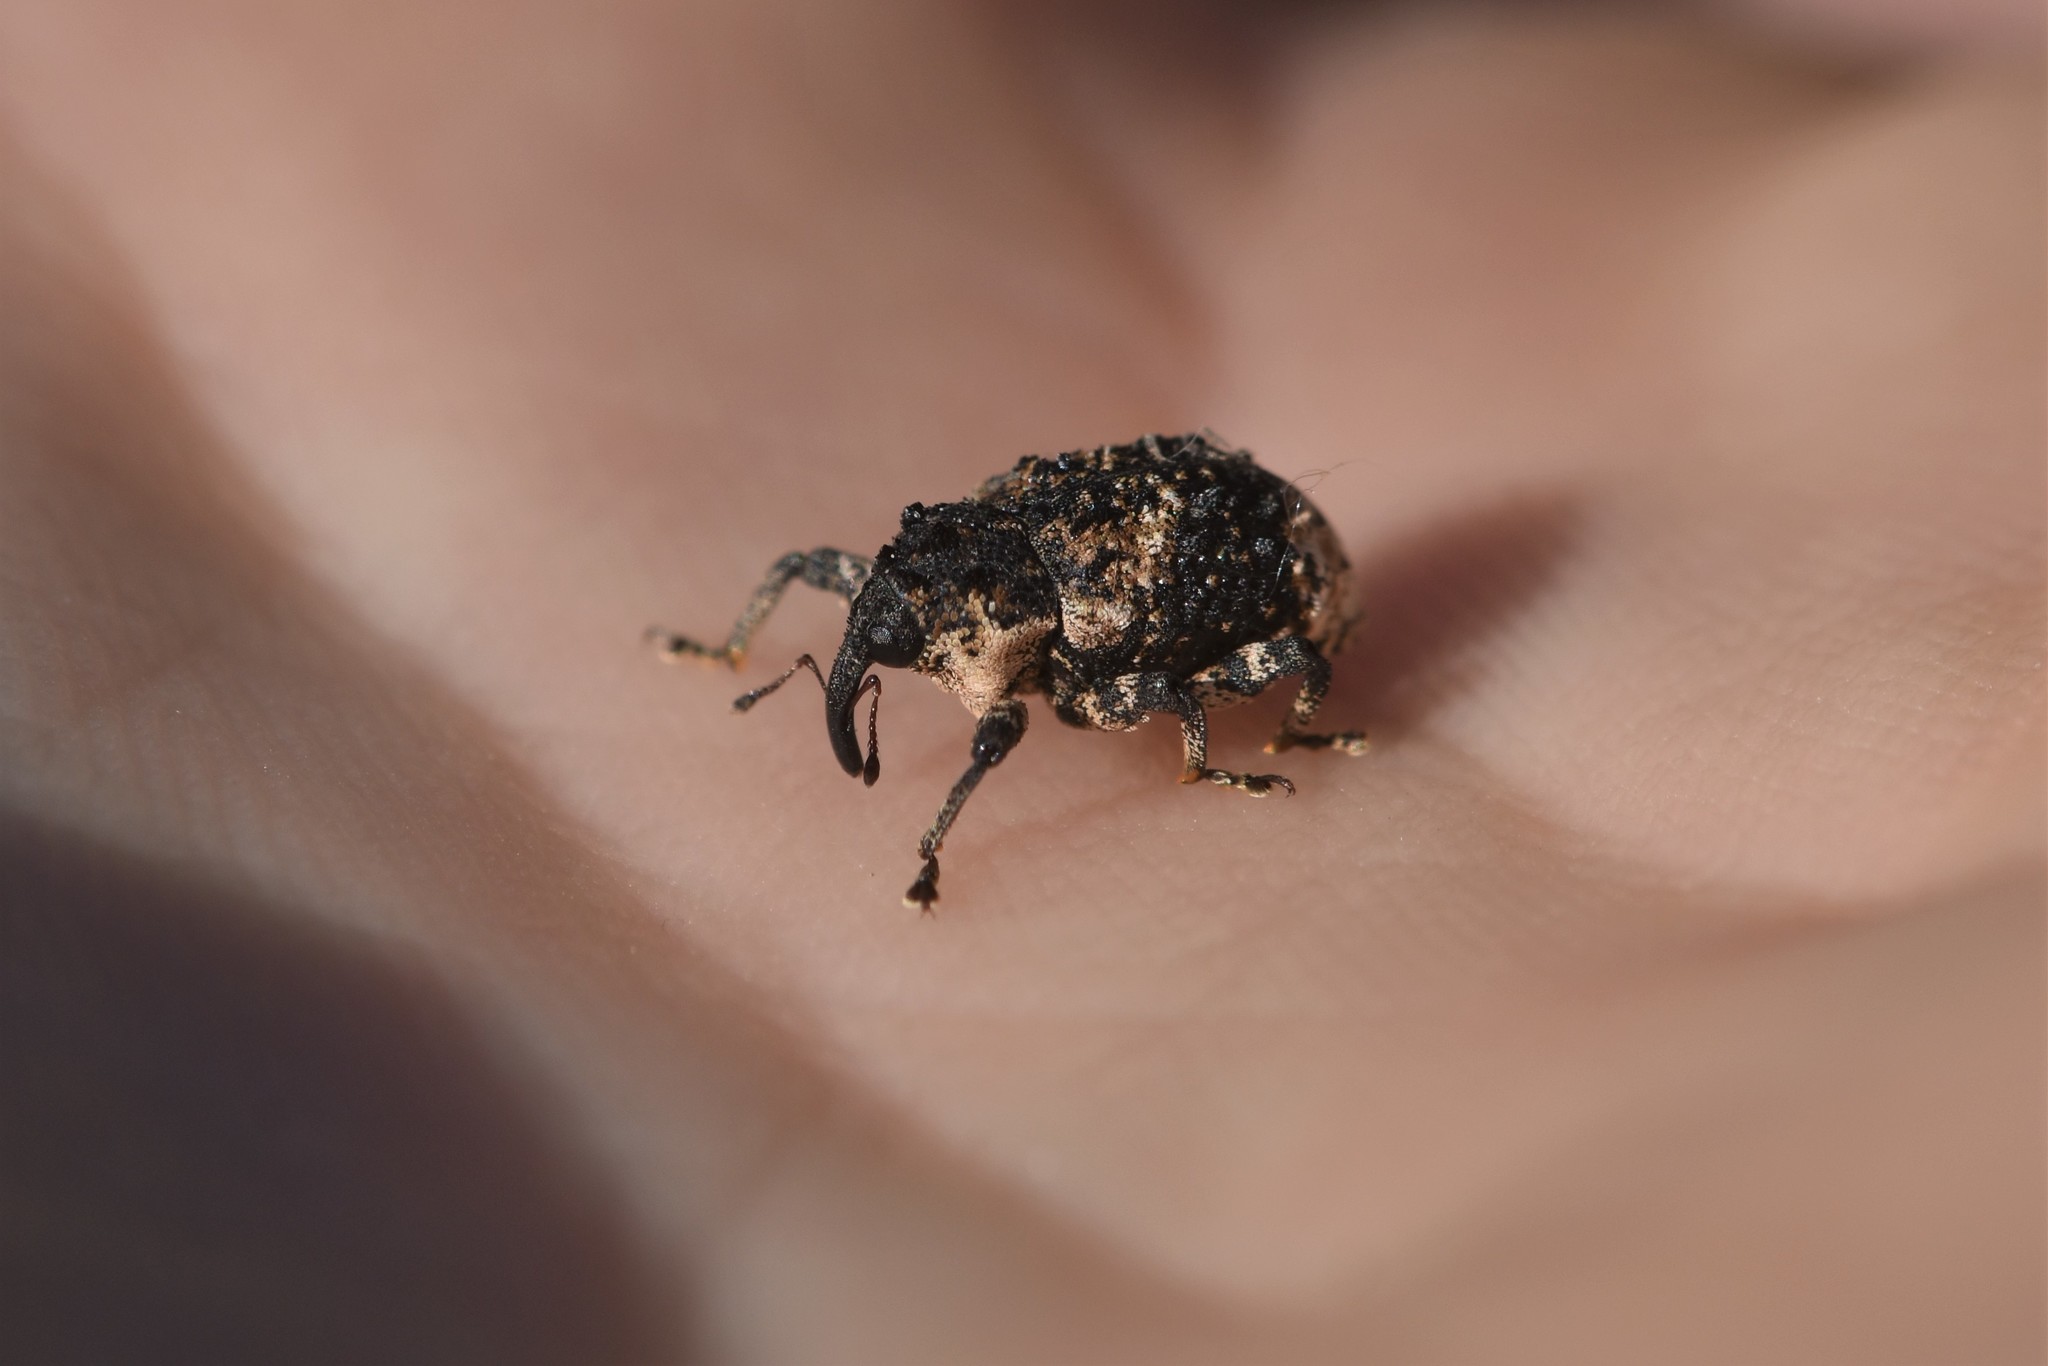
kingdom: Animalia
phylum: Arthropoda
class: Insecta
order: Coleoptera
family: Curculionidae
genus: Cryptorhynchus
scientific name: Cryptorhynchus lapathi
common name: Weevil
